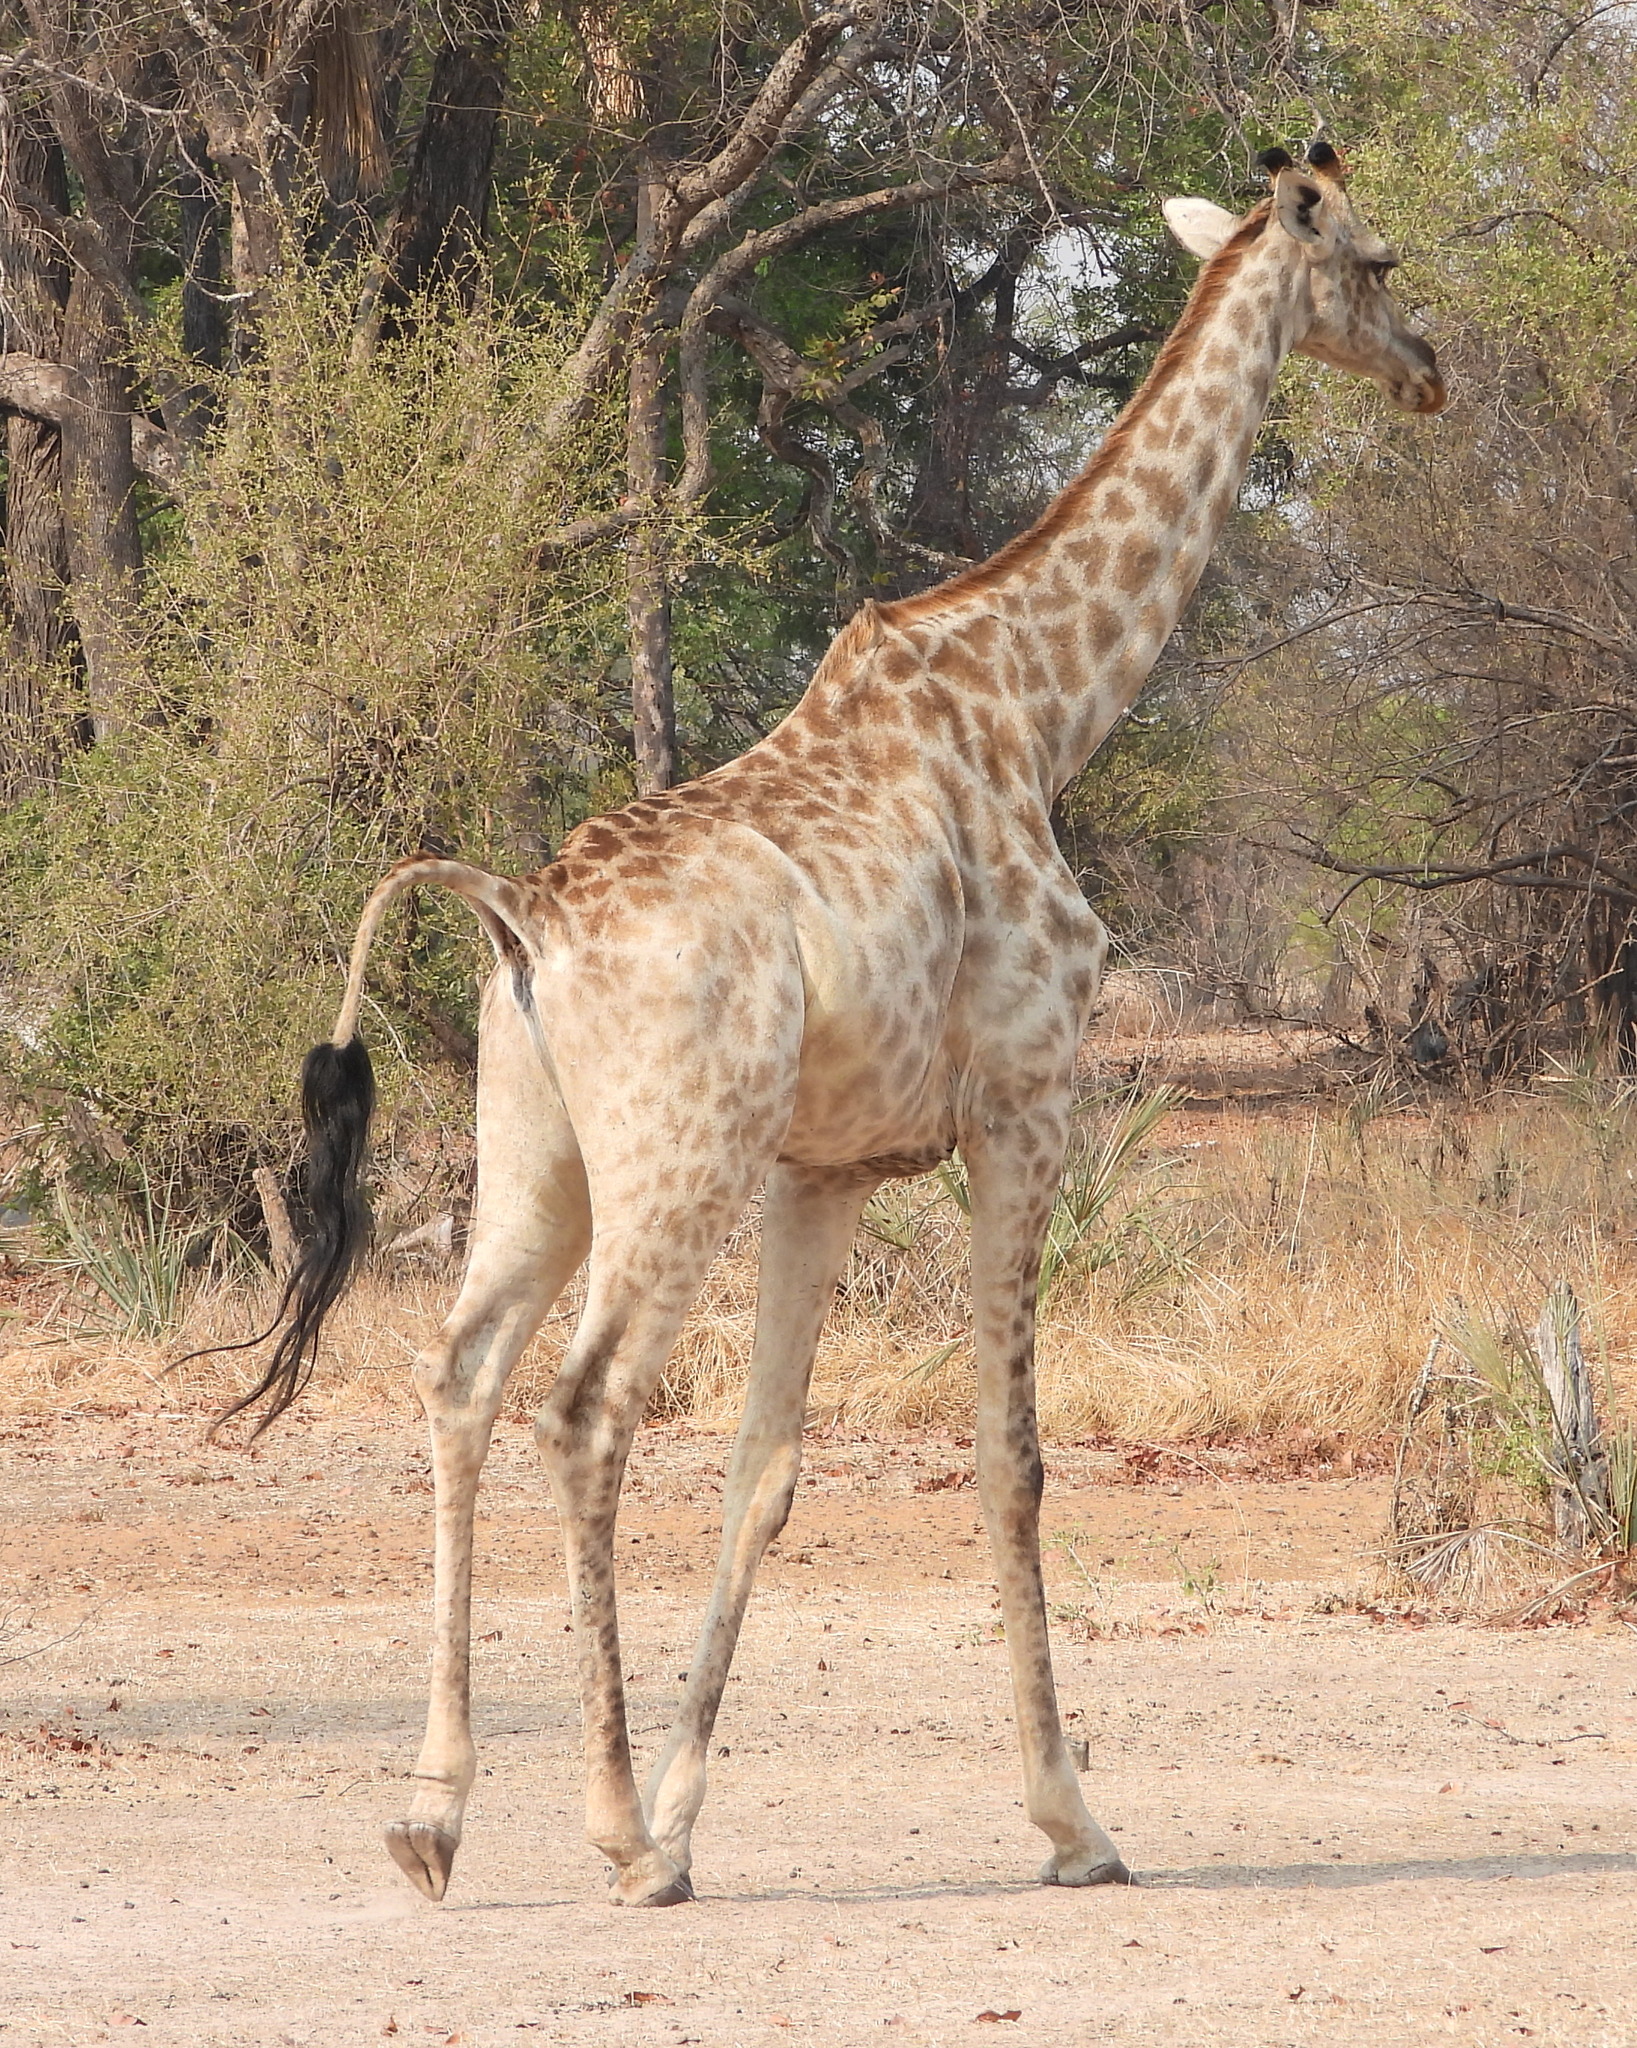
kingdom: Animalia
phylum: Chordata
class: Mammalia
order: Artiodactyla
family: Giraffidae
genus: Giraffa
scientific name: Giraffa giraffa
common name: Southern giraffe
